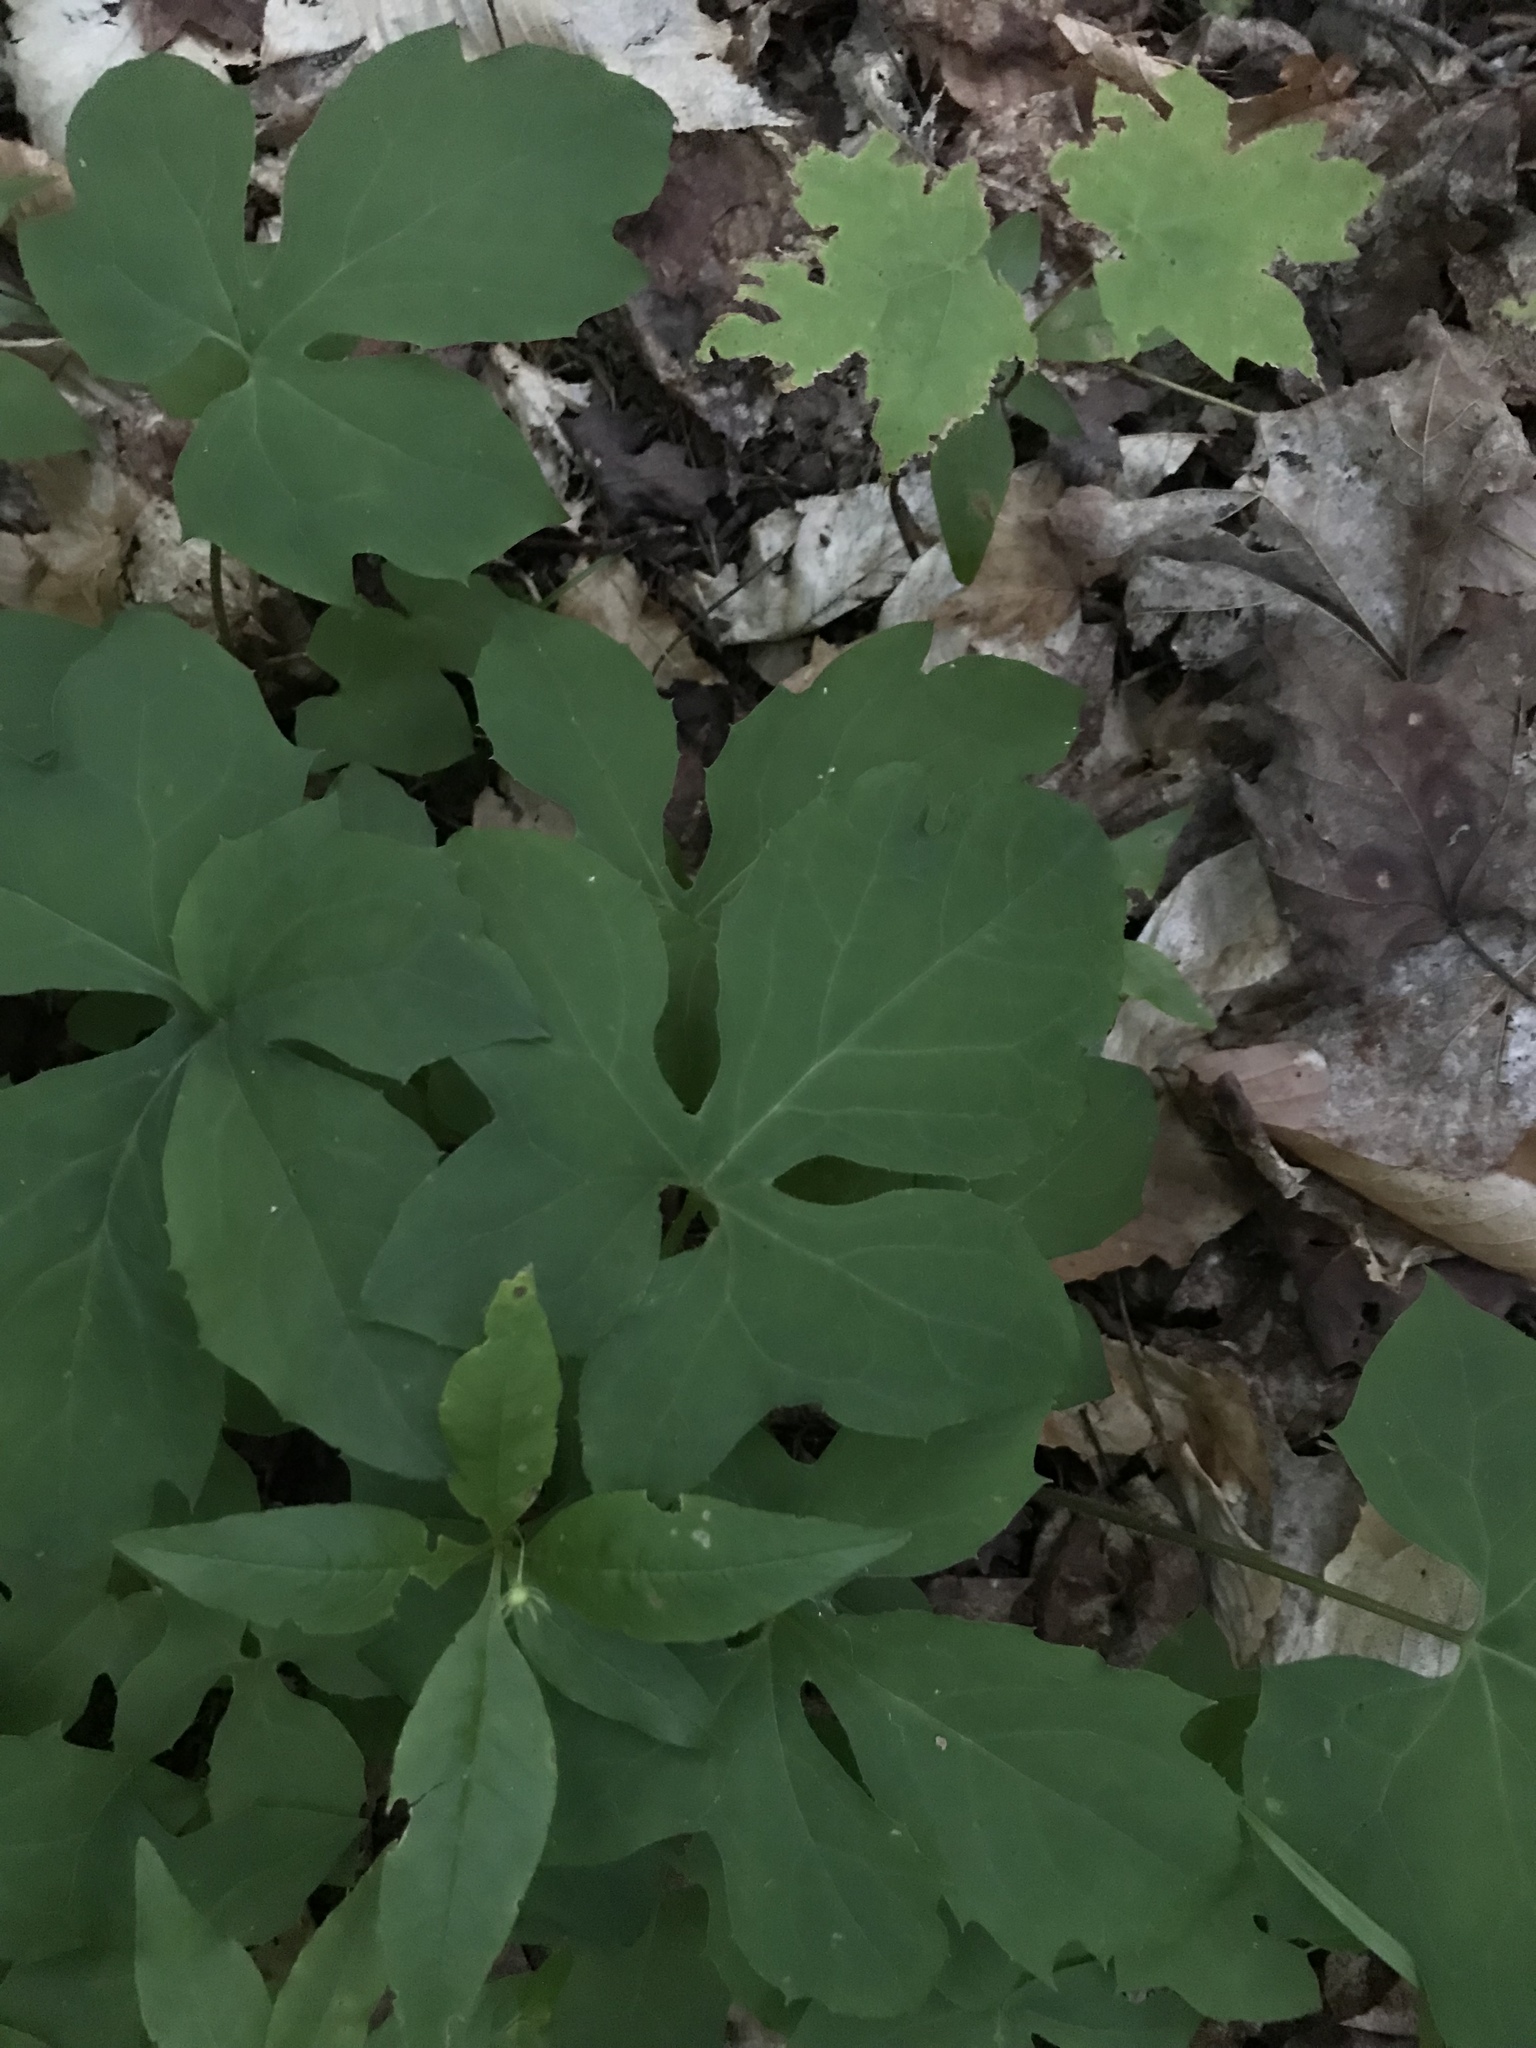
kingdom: Plantae
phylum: Tracheophyta
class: Magnoliopsida
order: Asterales
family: Asteraceae
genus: Nabalus
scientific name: Nabalus altissima
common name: Tall rattlesnakeroot
